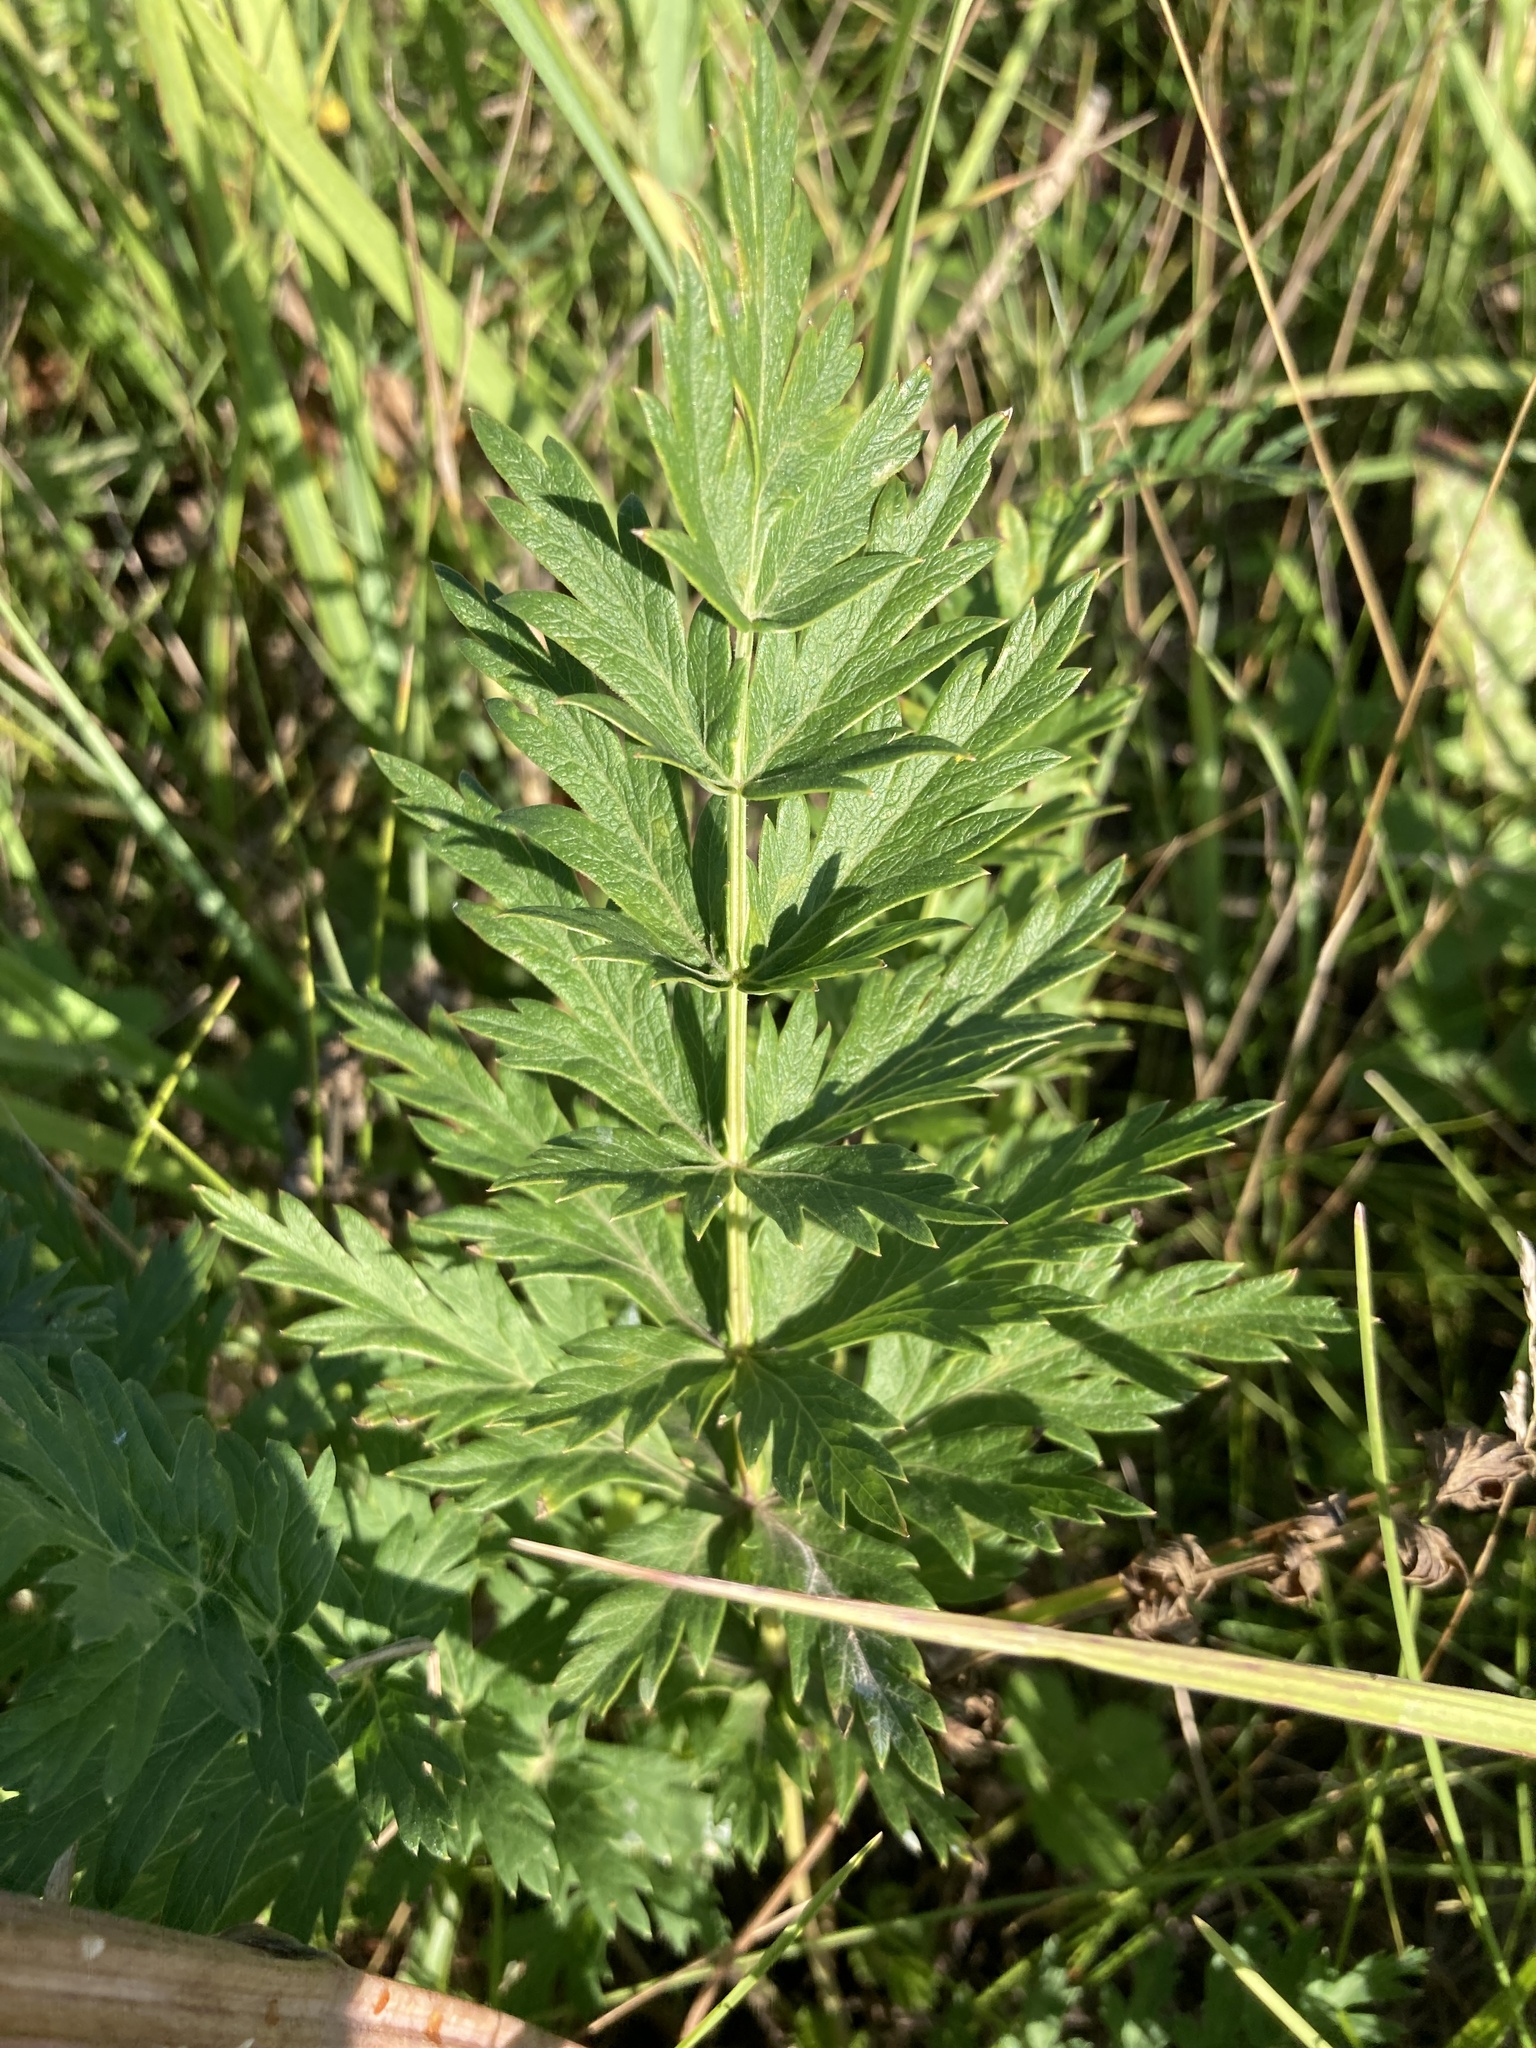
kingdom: Plantae
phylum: Tracheophyta
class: Magnoliopsida
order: Apiales
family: Apiaceae
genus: Seseli
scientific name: Seseli libanotis
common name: Mooncarrot
